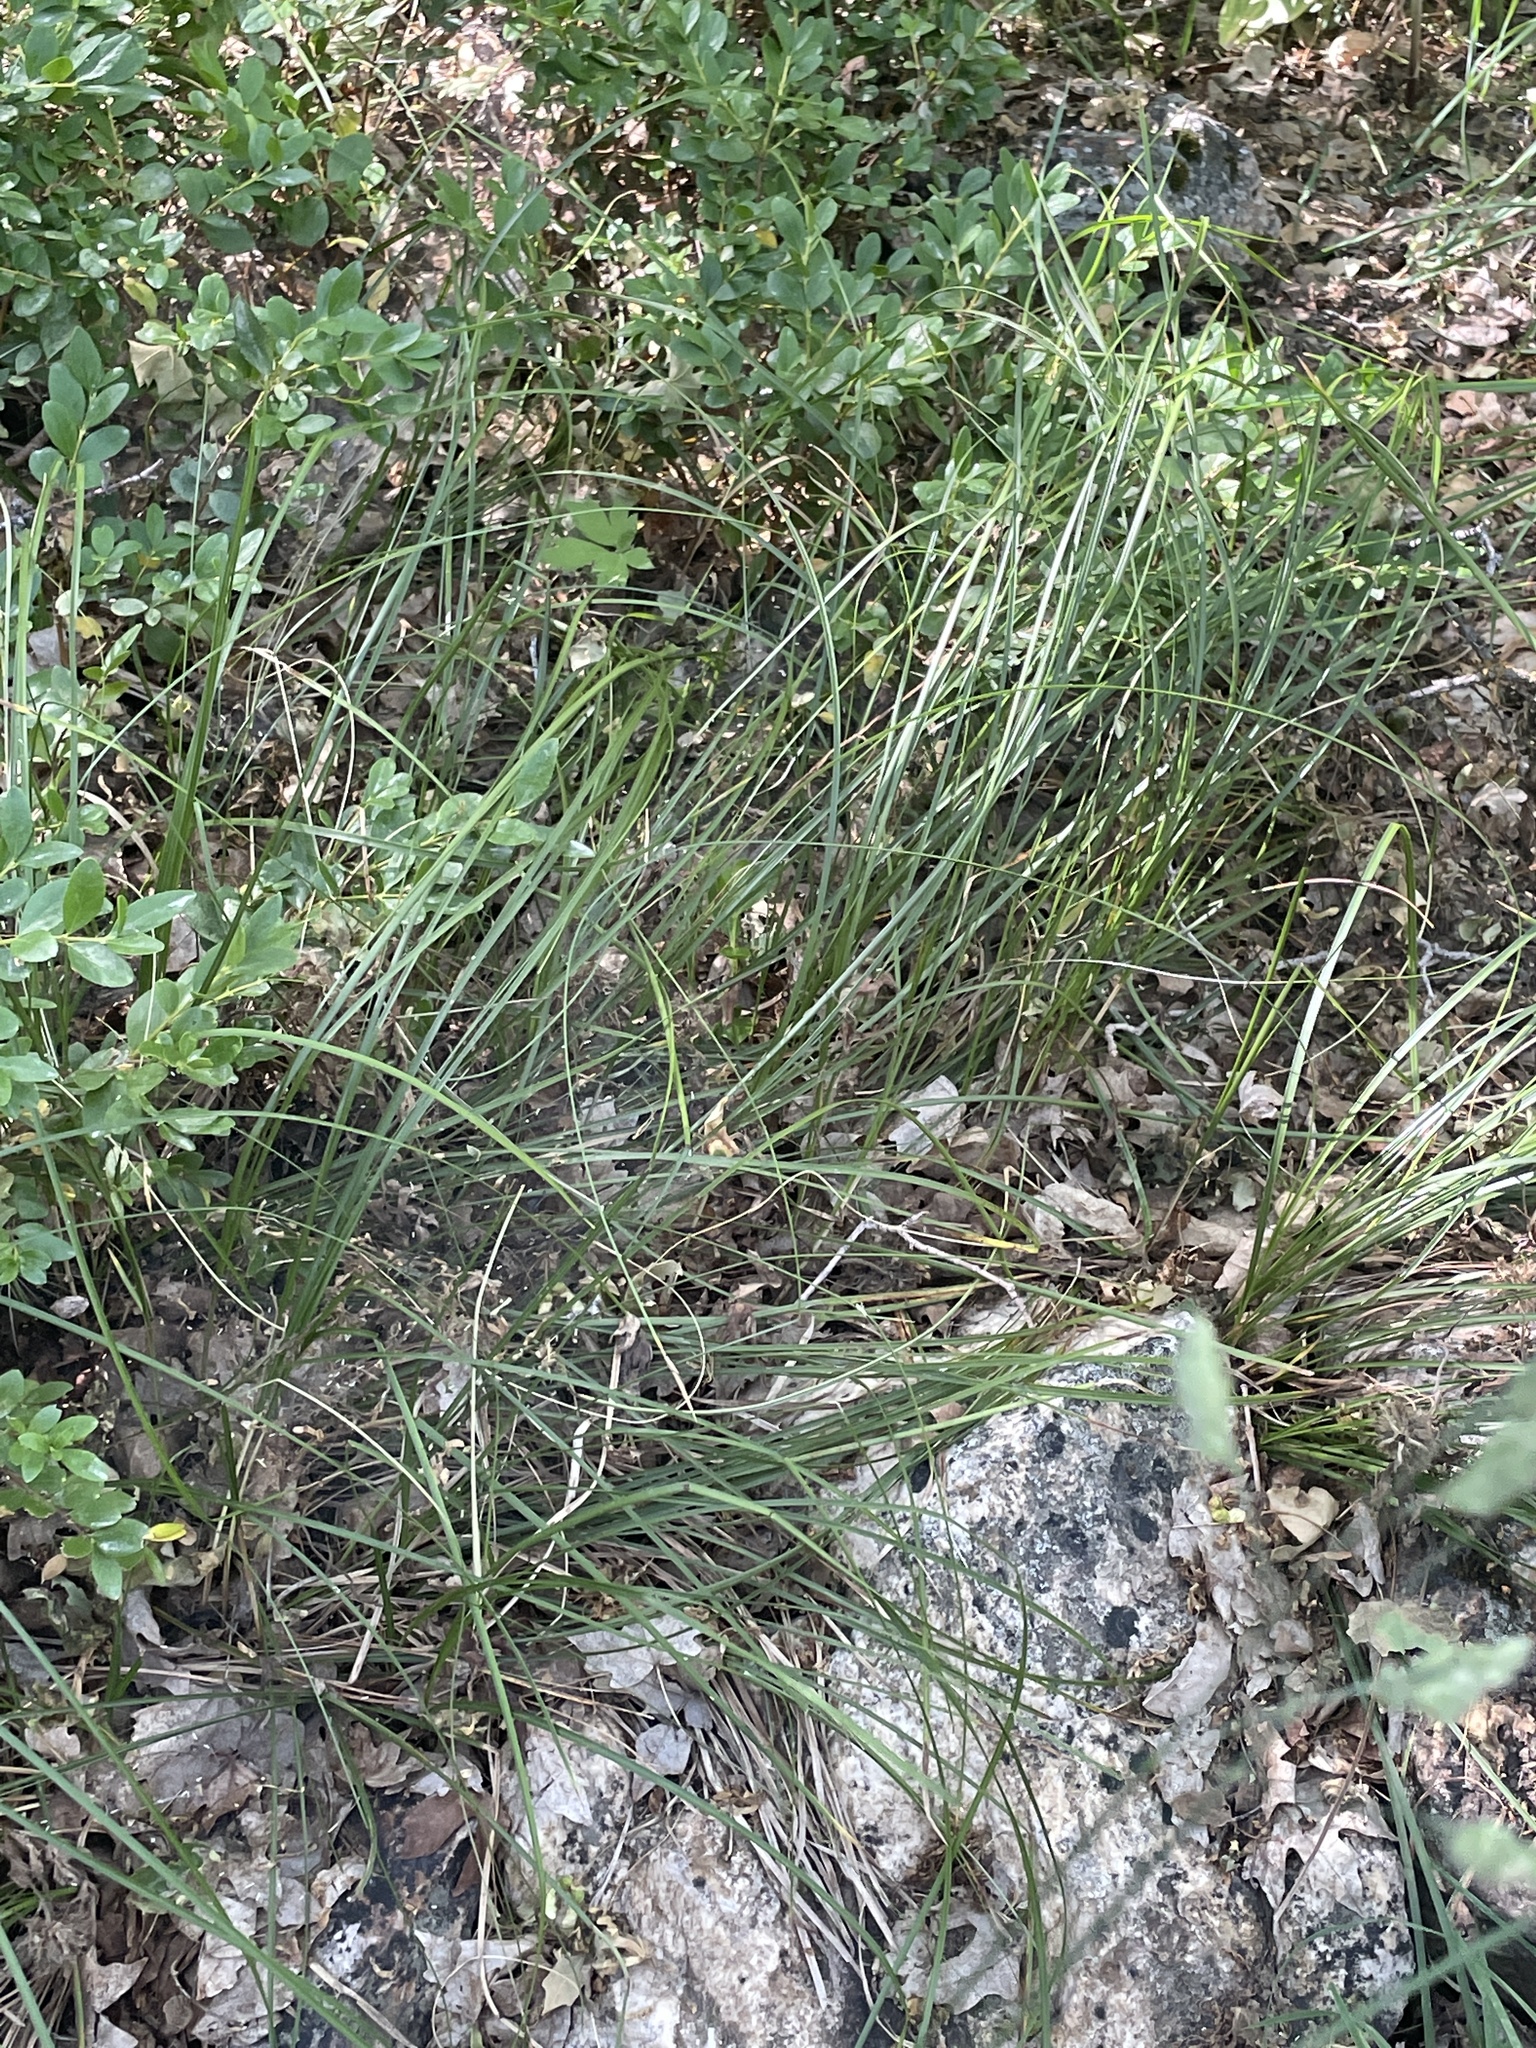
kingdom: Plantae
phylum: Tracheophyta
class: Liliopsida
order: Poales
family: Cyperaceae
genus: Carex
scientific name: Carex geyeri
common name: Elk sedge
